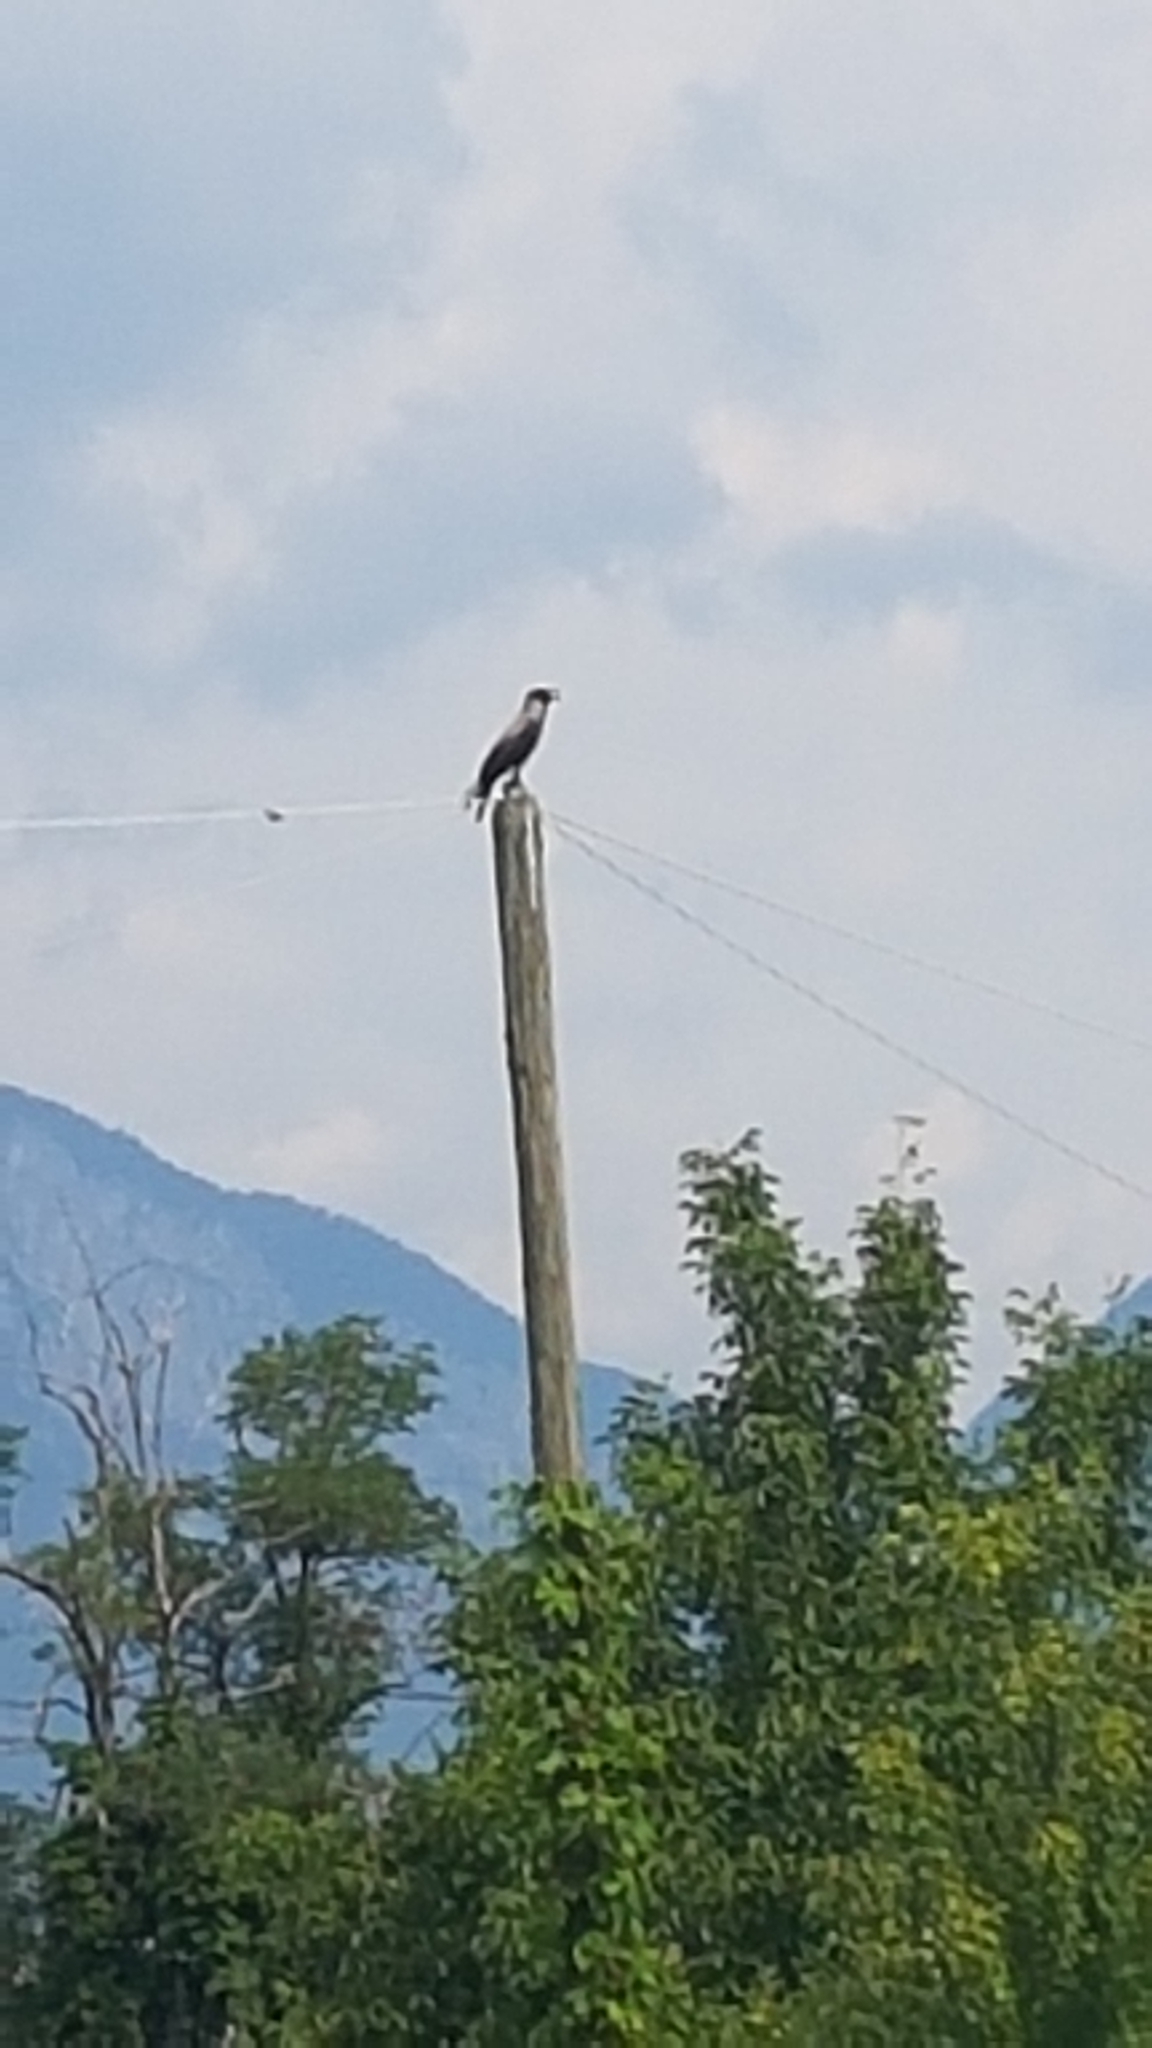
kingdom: Animalia
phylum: Chordata
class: Aves
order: Passeriformes
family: Corvidae
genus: Corvus
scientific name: Corvus cornix
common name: Hooded crow
